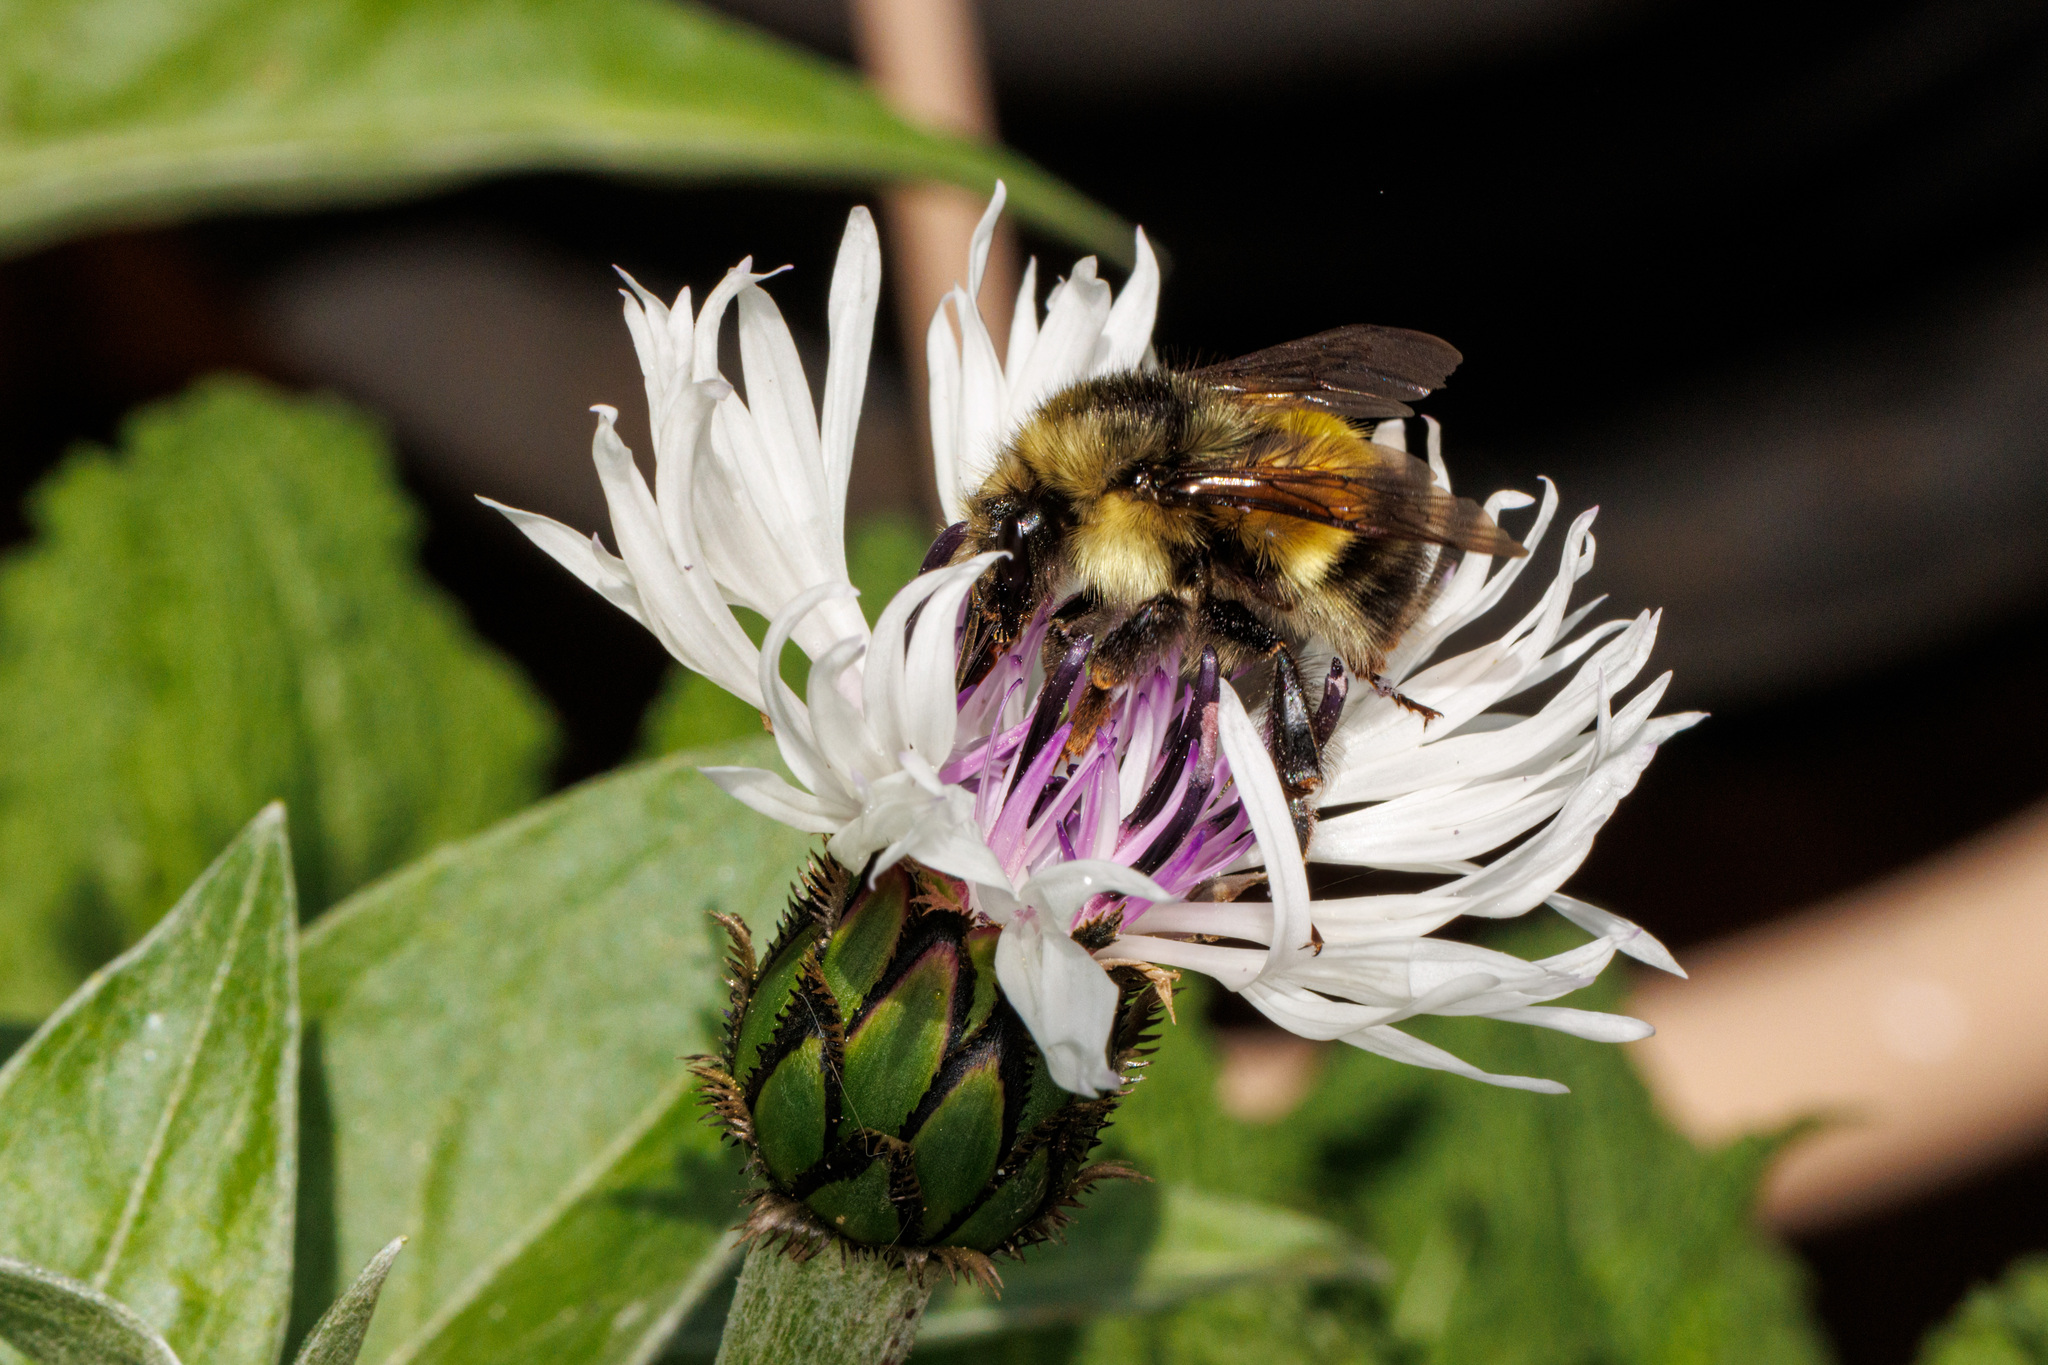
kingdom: Animalia
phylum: Arthropoda
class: Insecta
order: Hymenoptera
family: Apidae
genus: Bombus
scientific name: Bombus flavifrons
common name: Yellow head bumble bee
